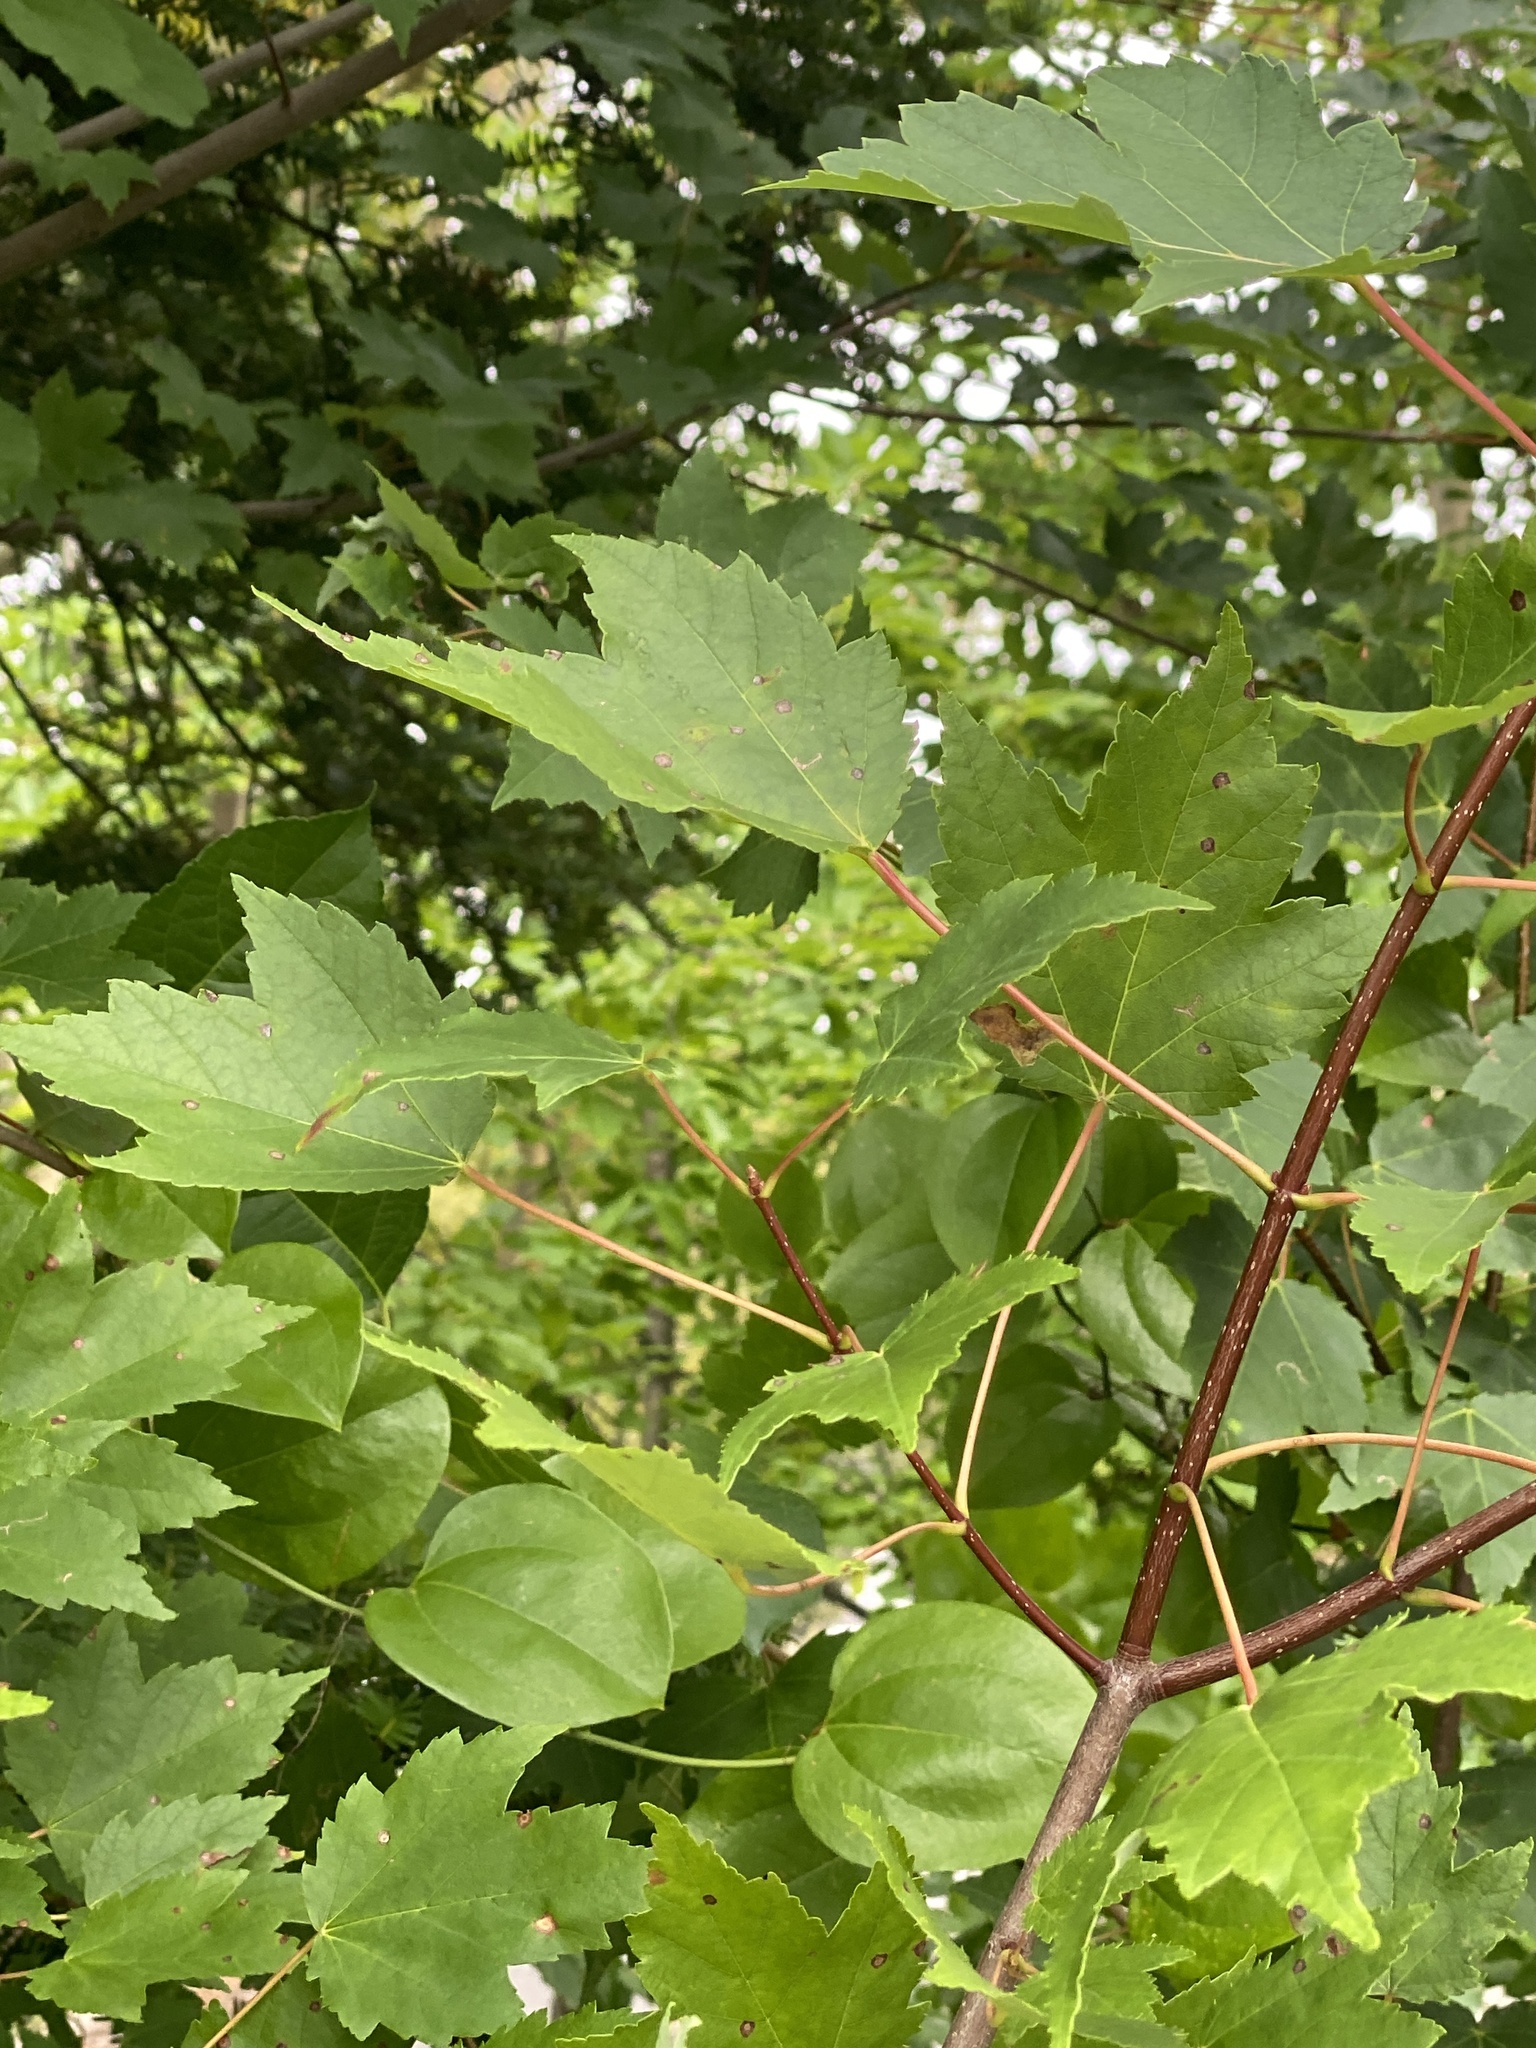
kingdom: Plantae
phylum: Tracheophyta
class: Magnoliopsida
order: Sapindales
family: Sapindaceae
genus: Acer
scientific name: Acer rubrum
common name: Red maple
